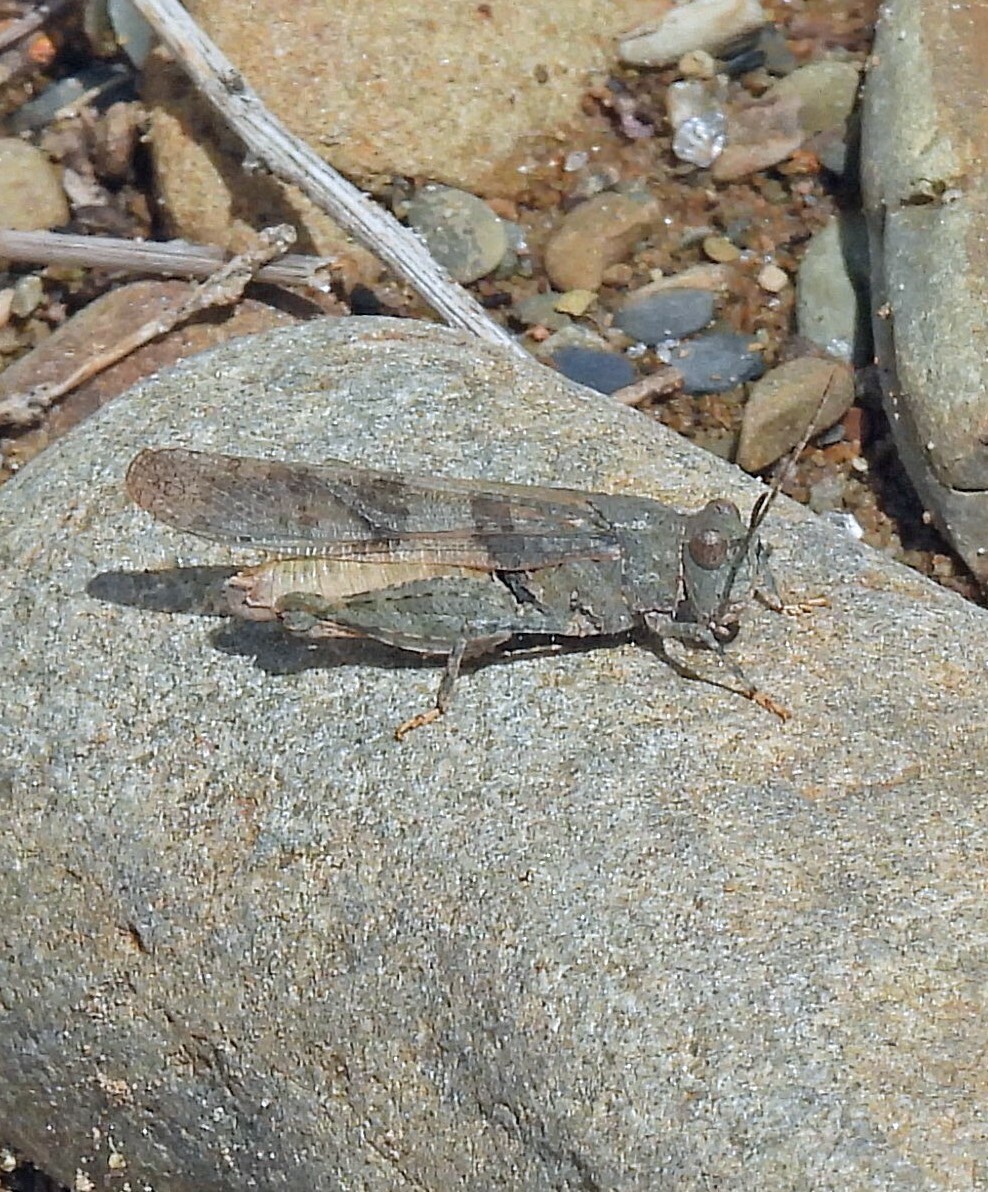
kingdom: Animalia
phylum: Arthropoda
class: Insecta
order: Orthoptera
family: Acrididae
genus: Trimerotropis
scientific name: Trimerotropis pallidipennis
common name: Pallid-winged grasshopper
